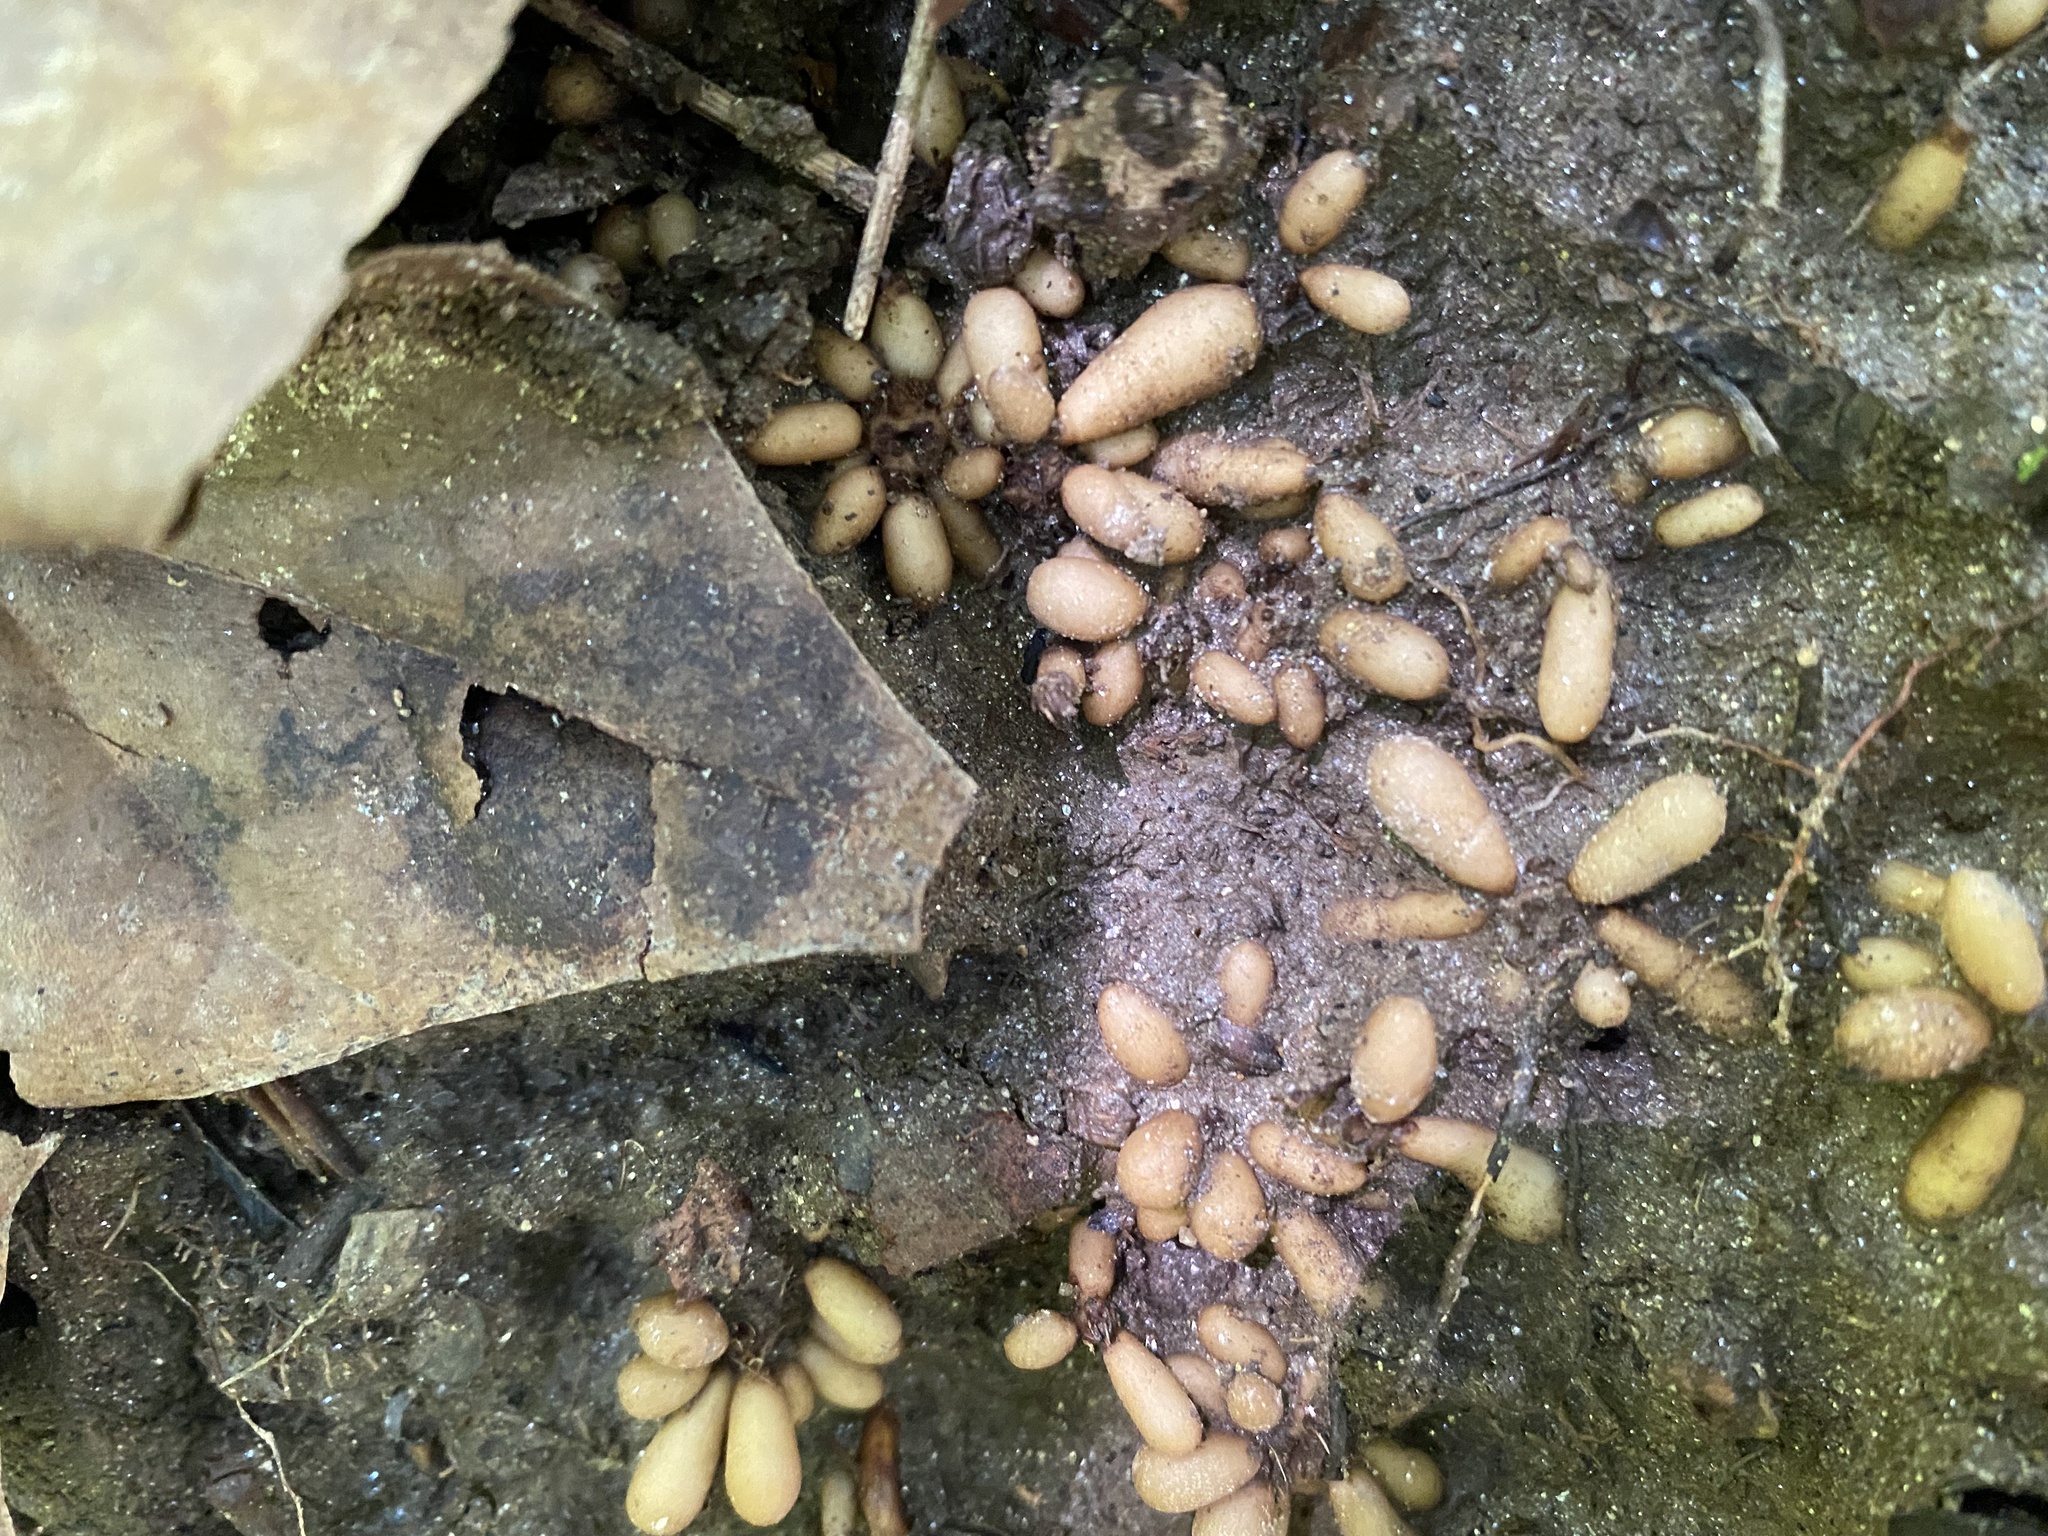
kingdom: Plantae
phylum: Tracheophyta
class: Magnoliopsida
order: Ranunculales
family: Ranunculaceae
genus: Ficaria
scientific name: Ficaria verna
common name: Lesser celandine
